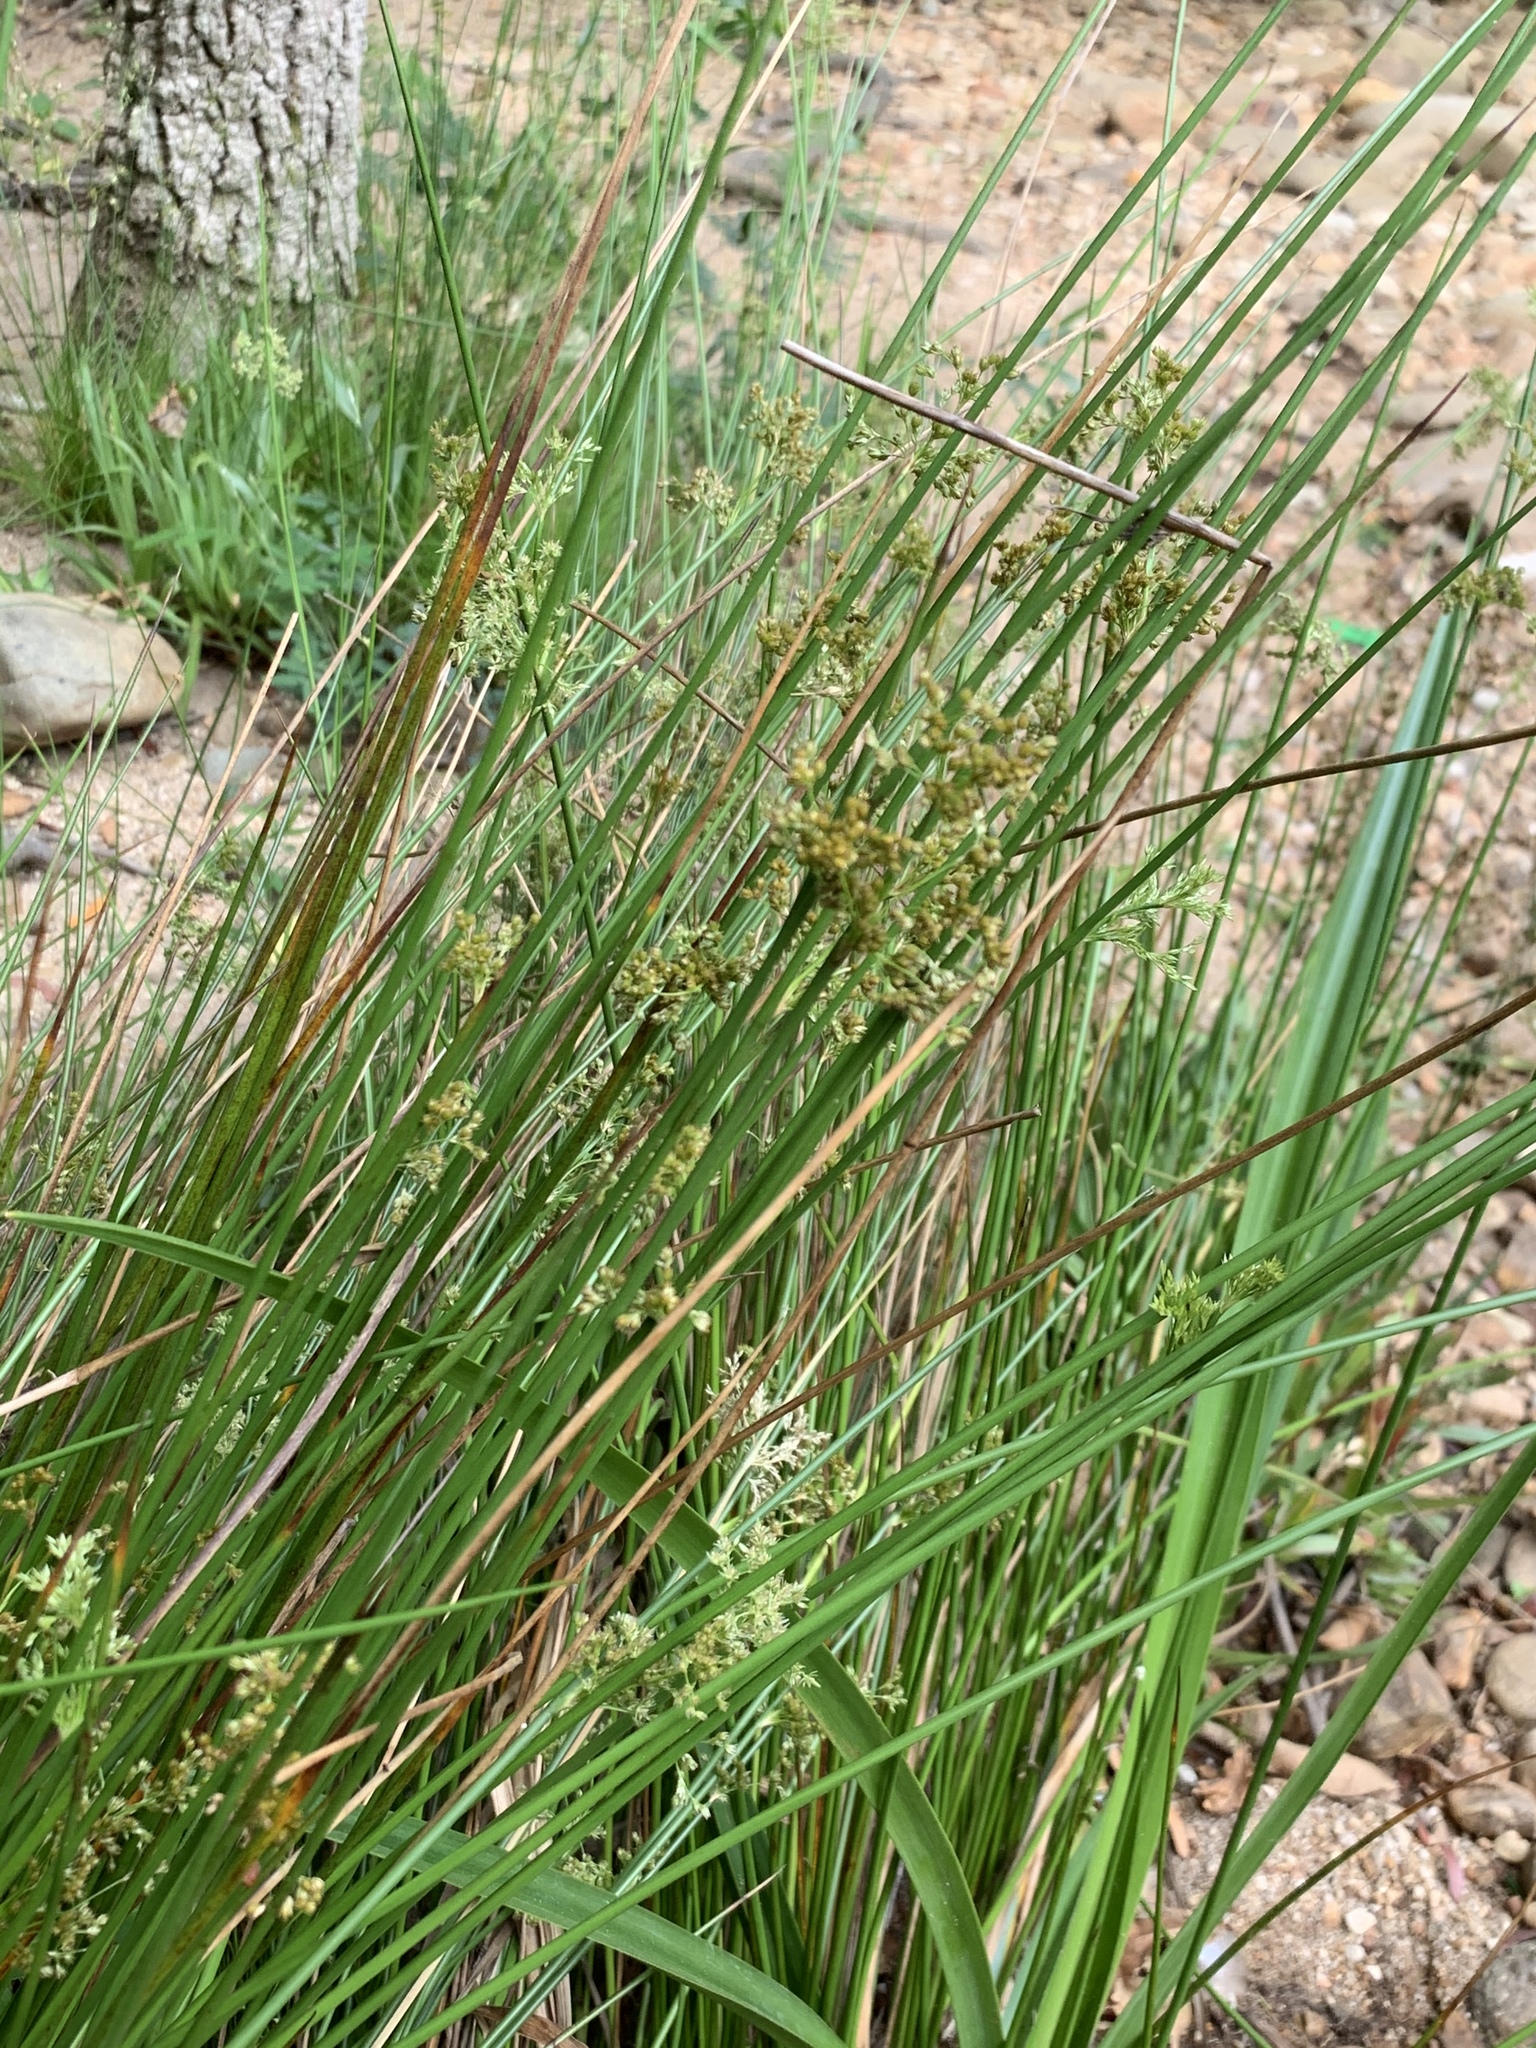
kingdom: Plantae
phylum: Tracheophyta
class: Liliopsida
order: Poales
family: Juncaceae
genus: Juncus
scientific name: Juncus effusus
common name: Soft rush
